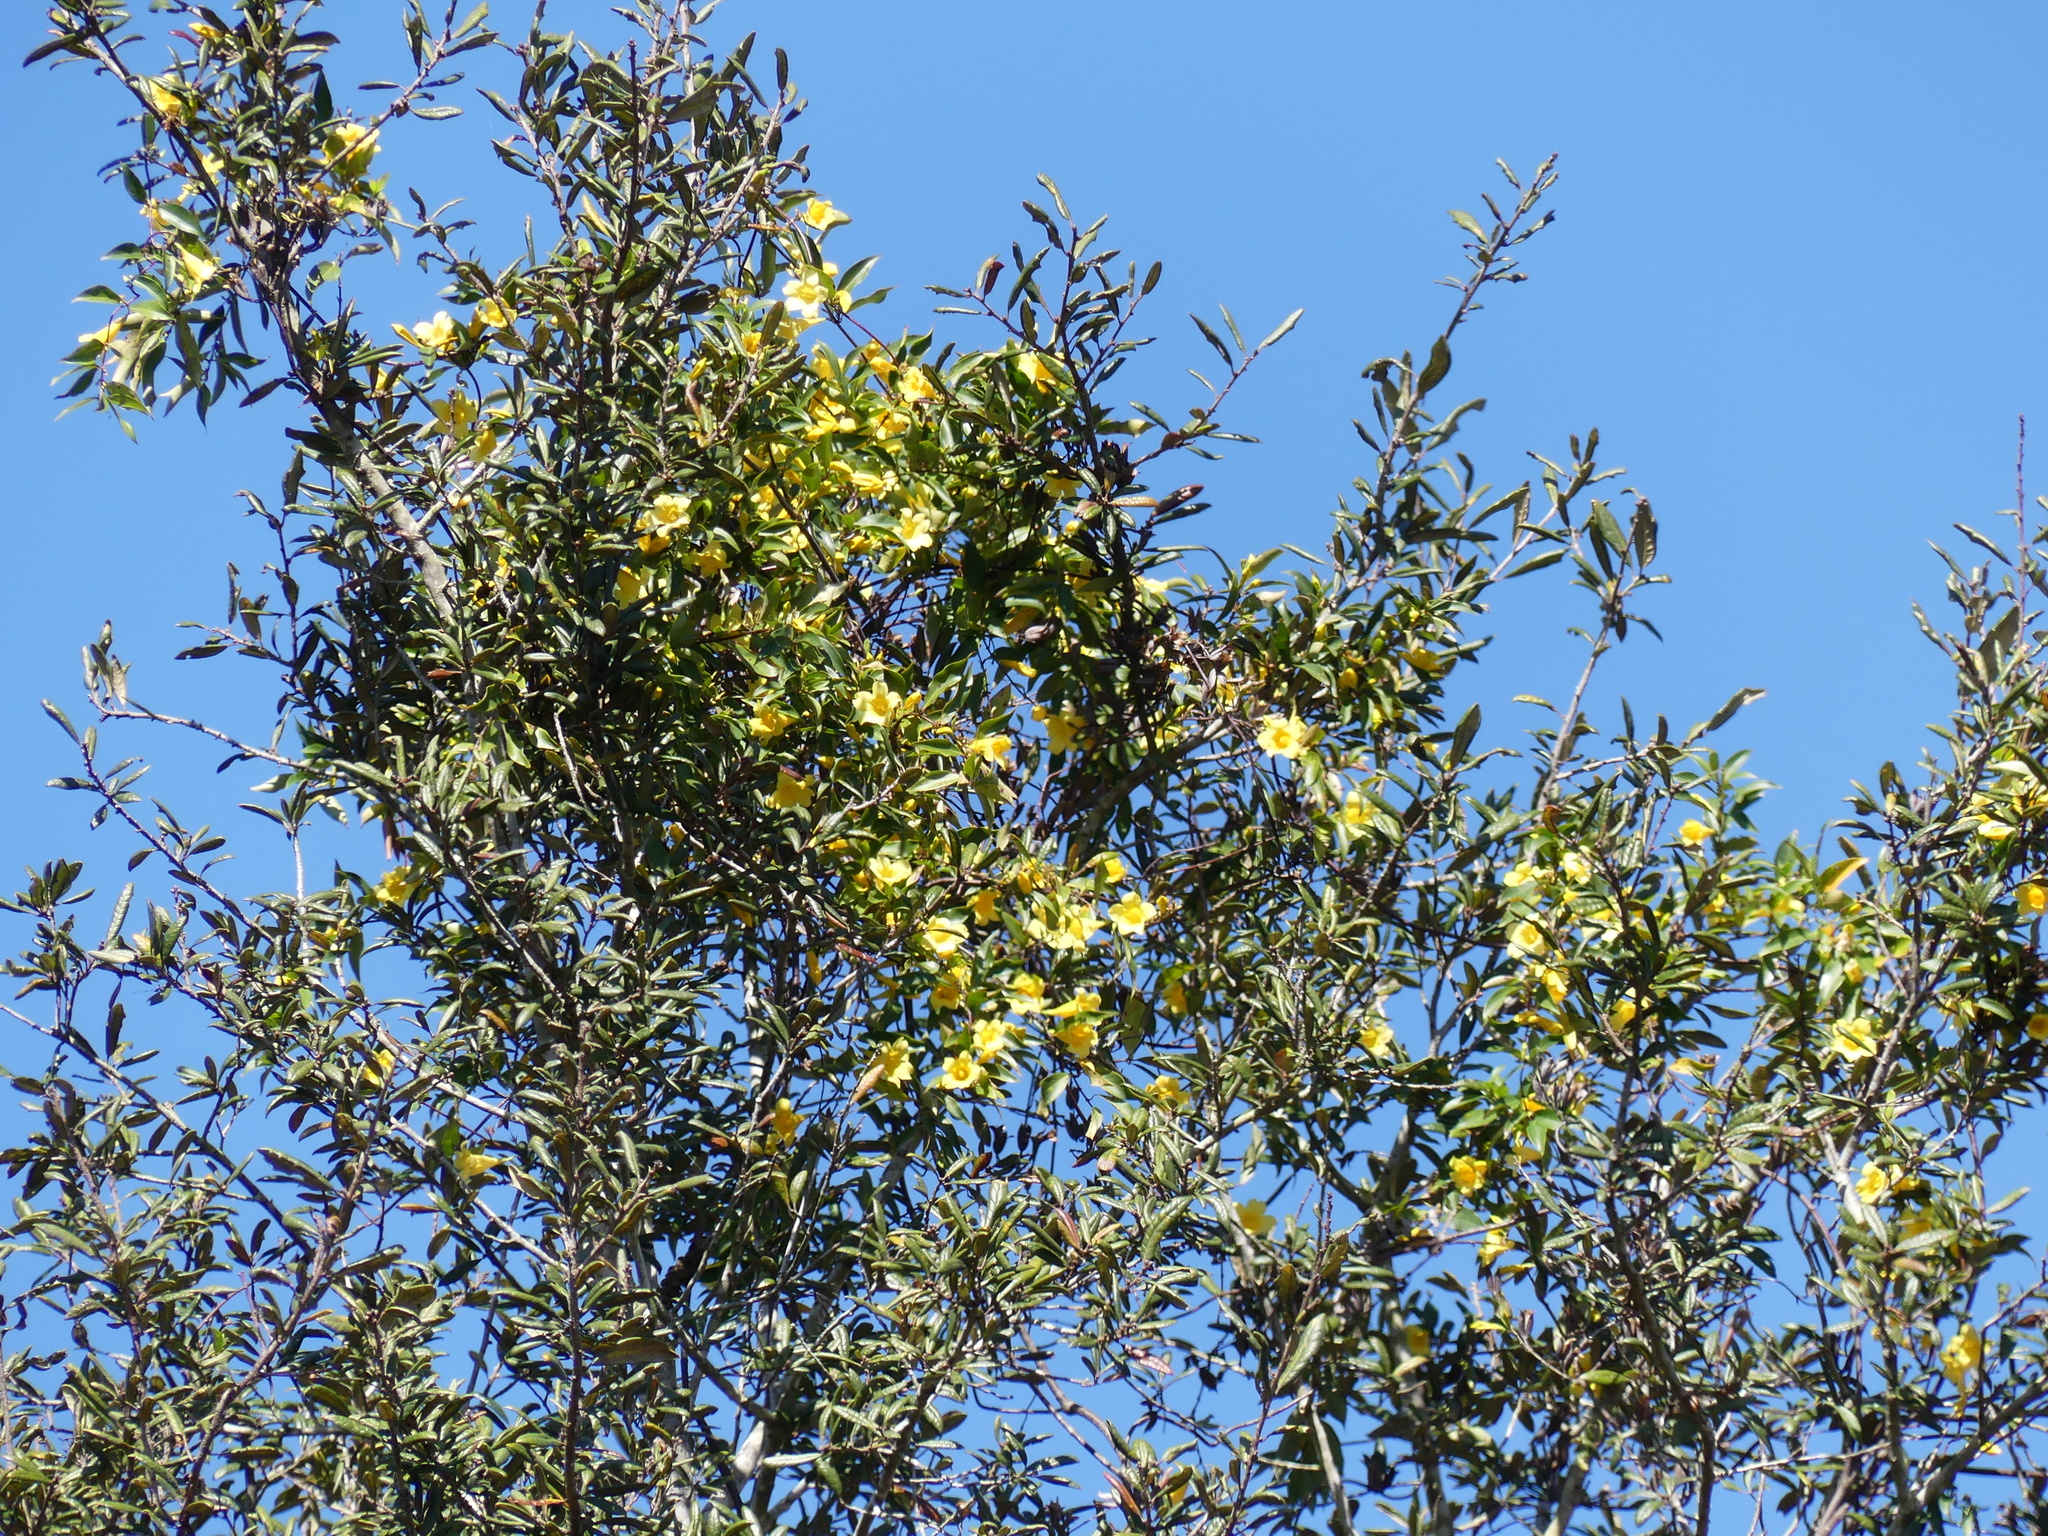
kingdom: Plantae
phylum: Tracheophyta
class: Magnoliopsida
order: Gentianales
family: Gelsemiaceae
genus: Gelsemium
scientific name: Gelsemium sempervirens
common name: Carolina-jasmine
